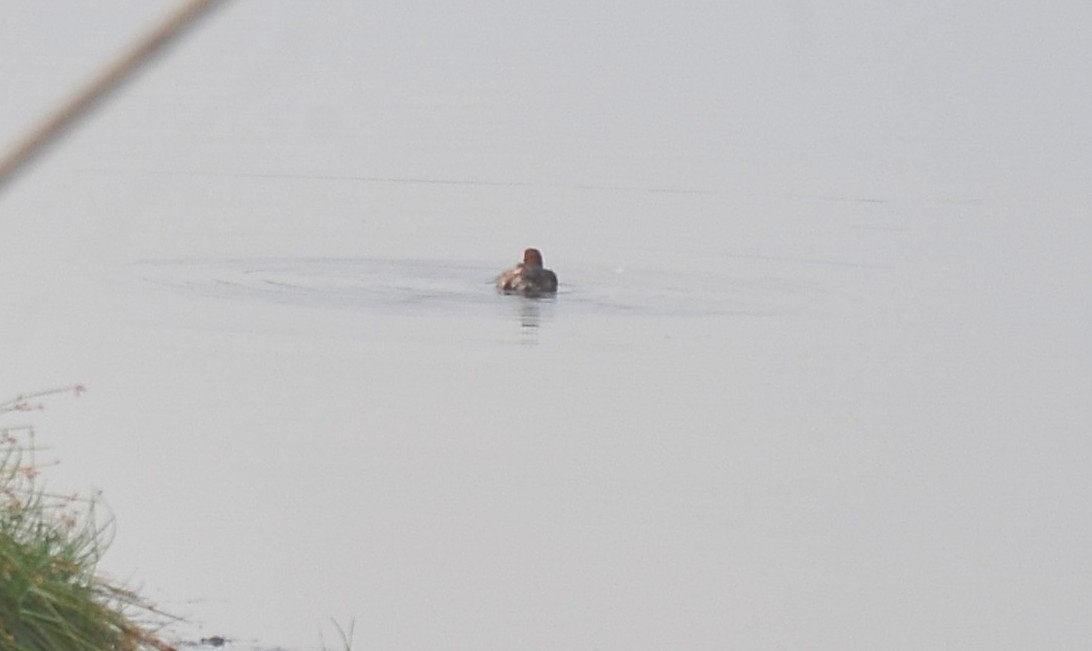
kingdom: Animalia
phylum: Chordata
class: Aves
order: Podicipediformes
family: Podicipedidae
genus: Tachybaptus
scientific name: Tachybaptus ruficollis
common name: Little grebe
